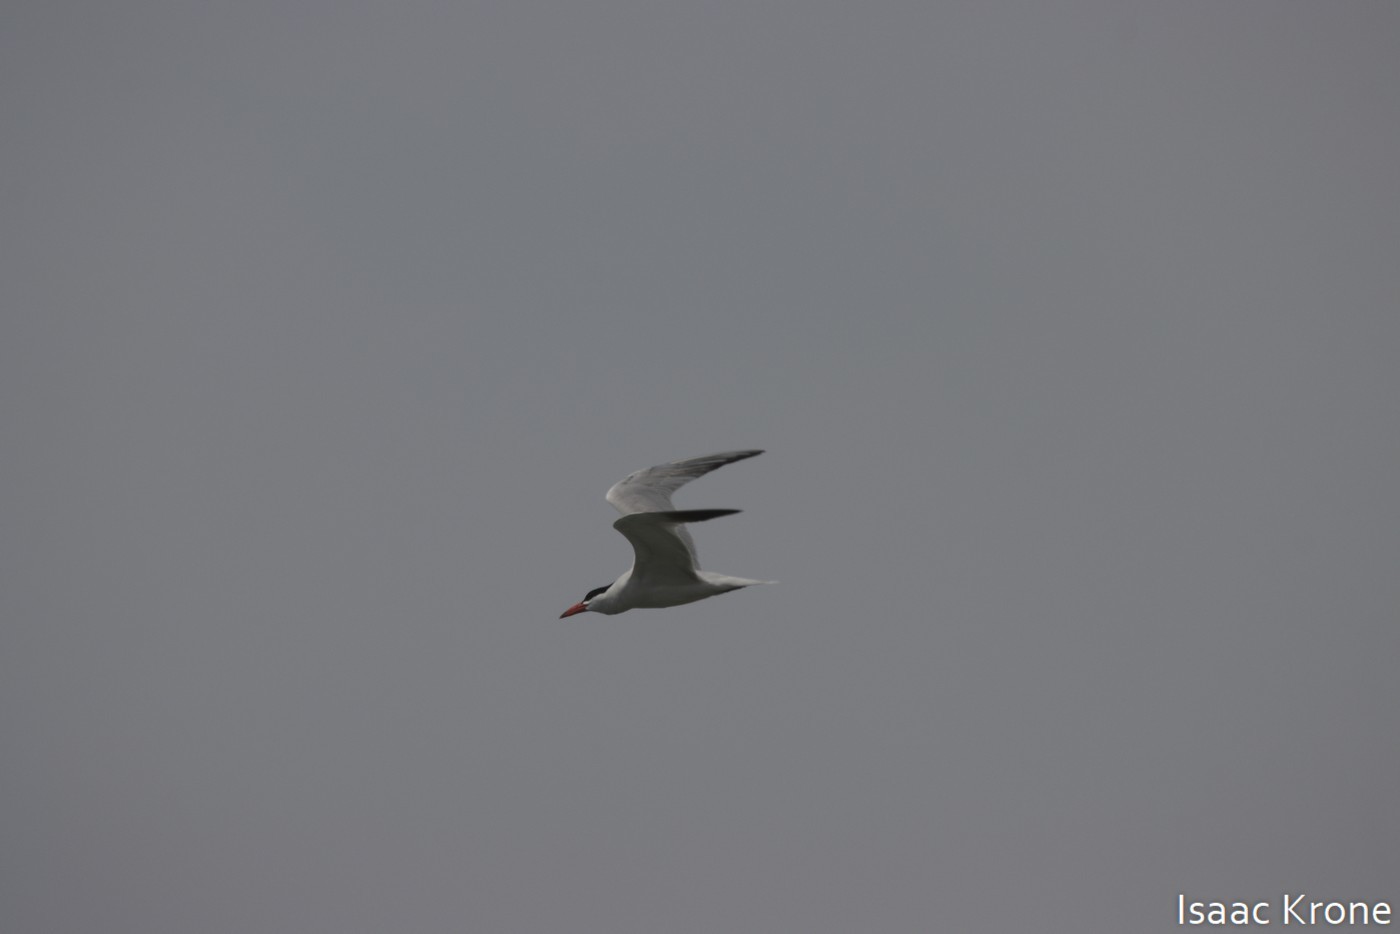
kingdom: Animalia
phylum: Chordata
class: Aves
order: Charadriiformes
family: Laridae
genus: Hydroprogne
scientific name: Hydroprogne caspia
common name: Caspian tern
